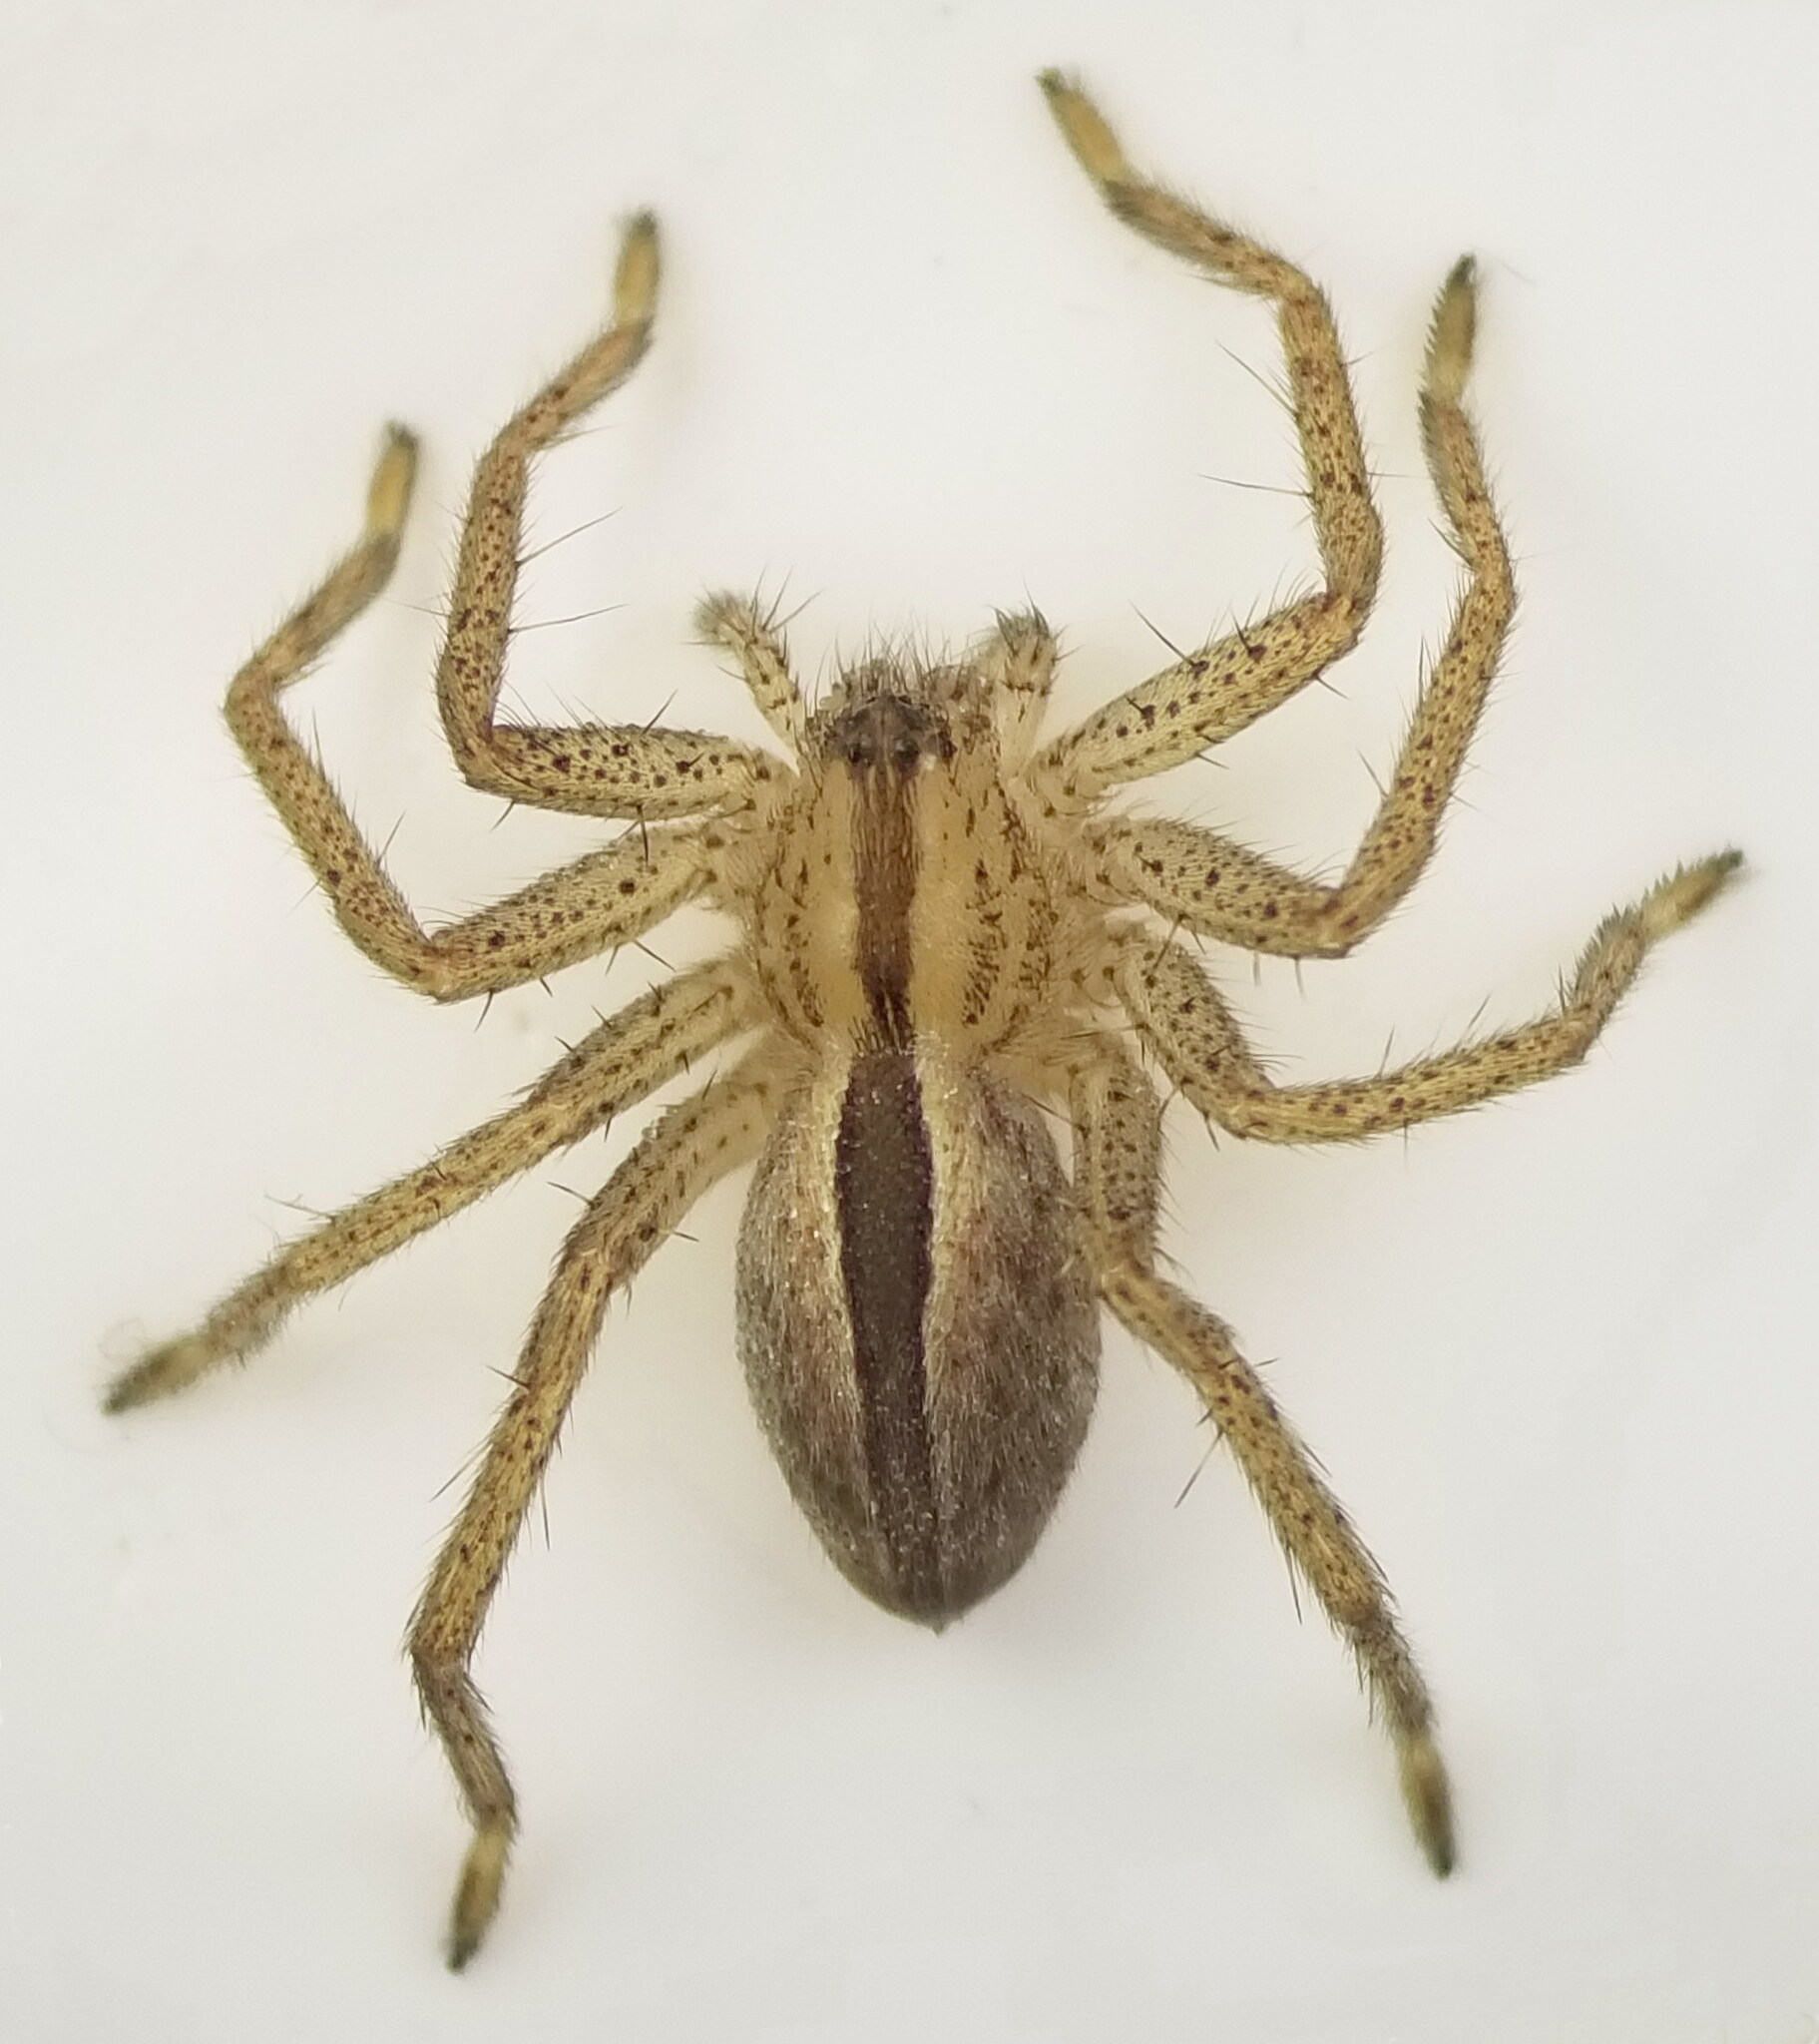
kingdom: Animalia
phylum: Arthropoda
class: Arachnida
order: Araneae
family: Sparassidae
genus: Micrommata
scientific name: Micrommata ligurina
